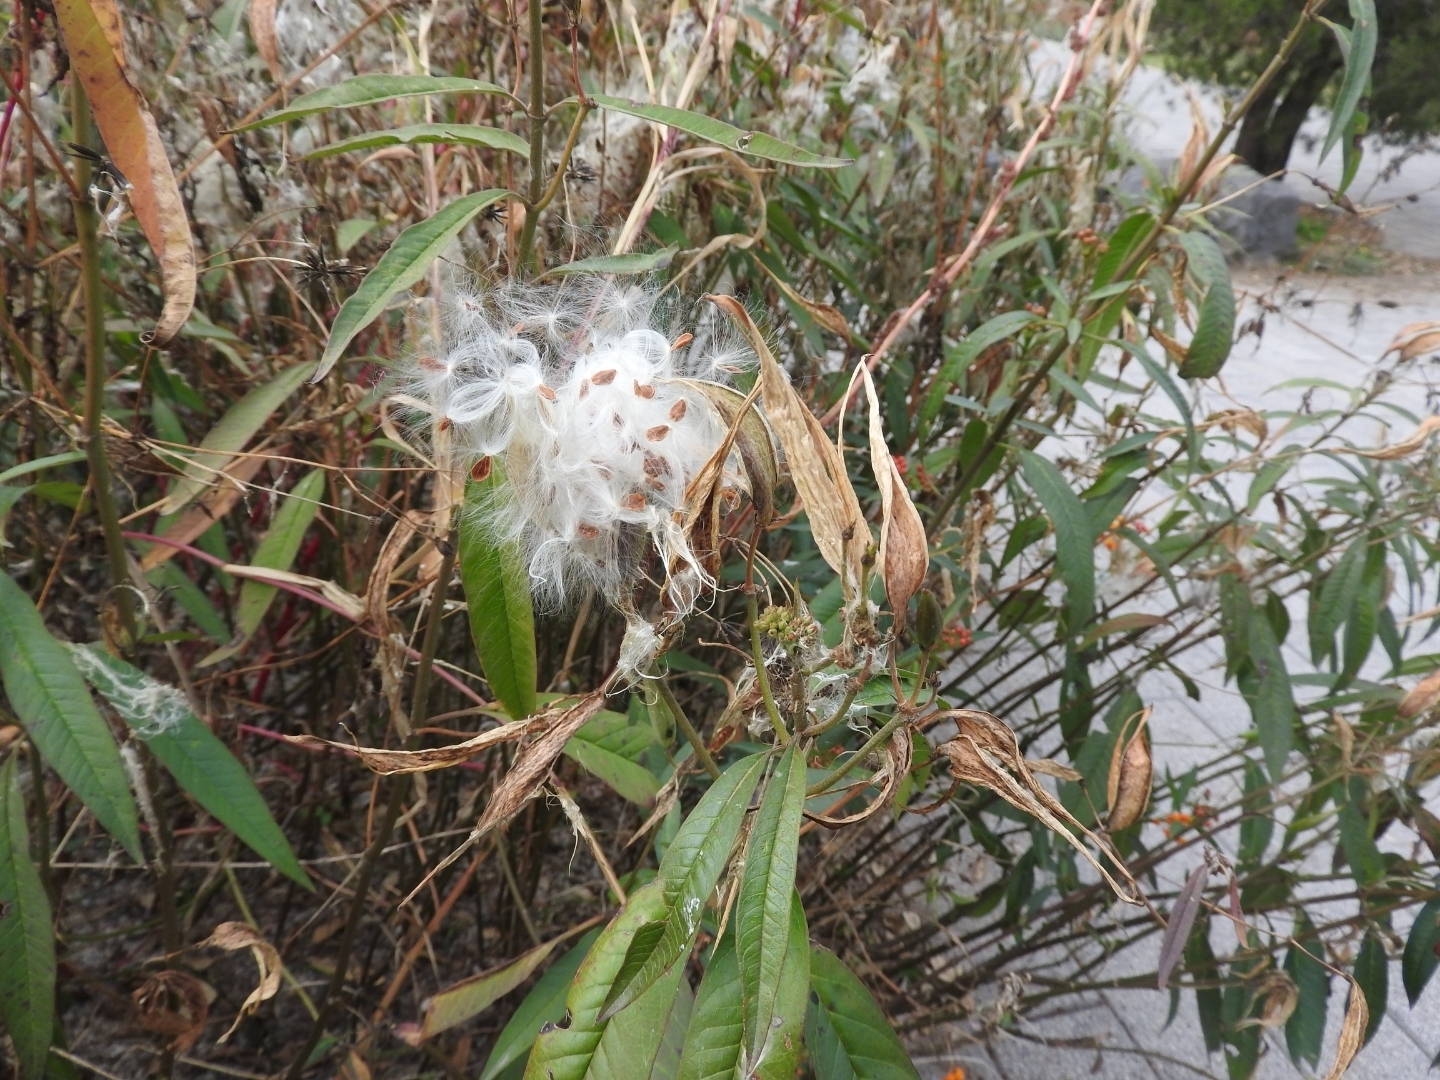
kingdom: Plantae
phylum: Tracheophyta
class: Magnoliopsida
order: Gentianales
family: Apocynaceae
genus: Asclepias
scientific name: Asclepias curassavica
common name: Bloodflower
